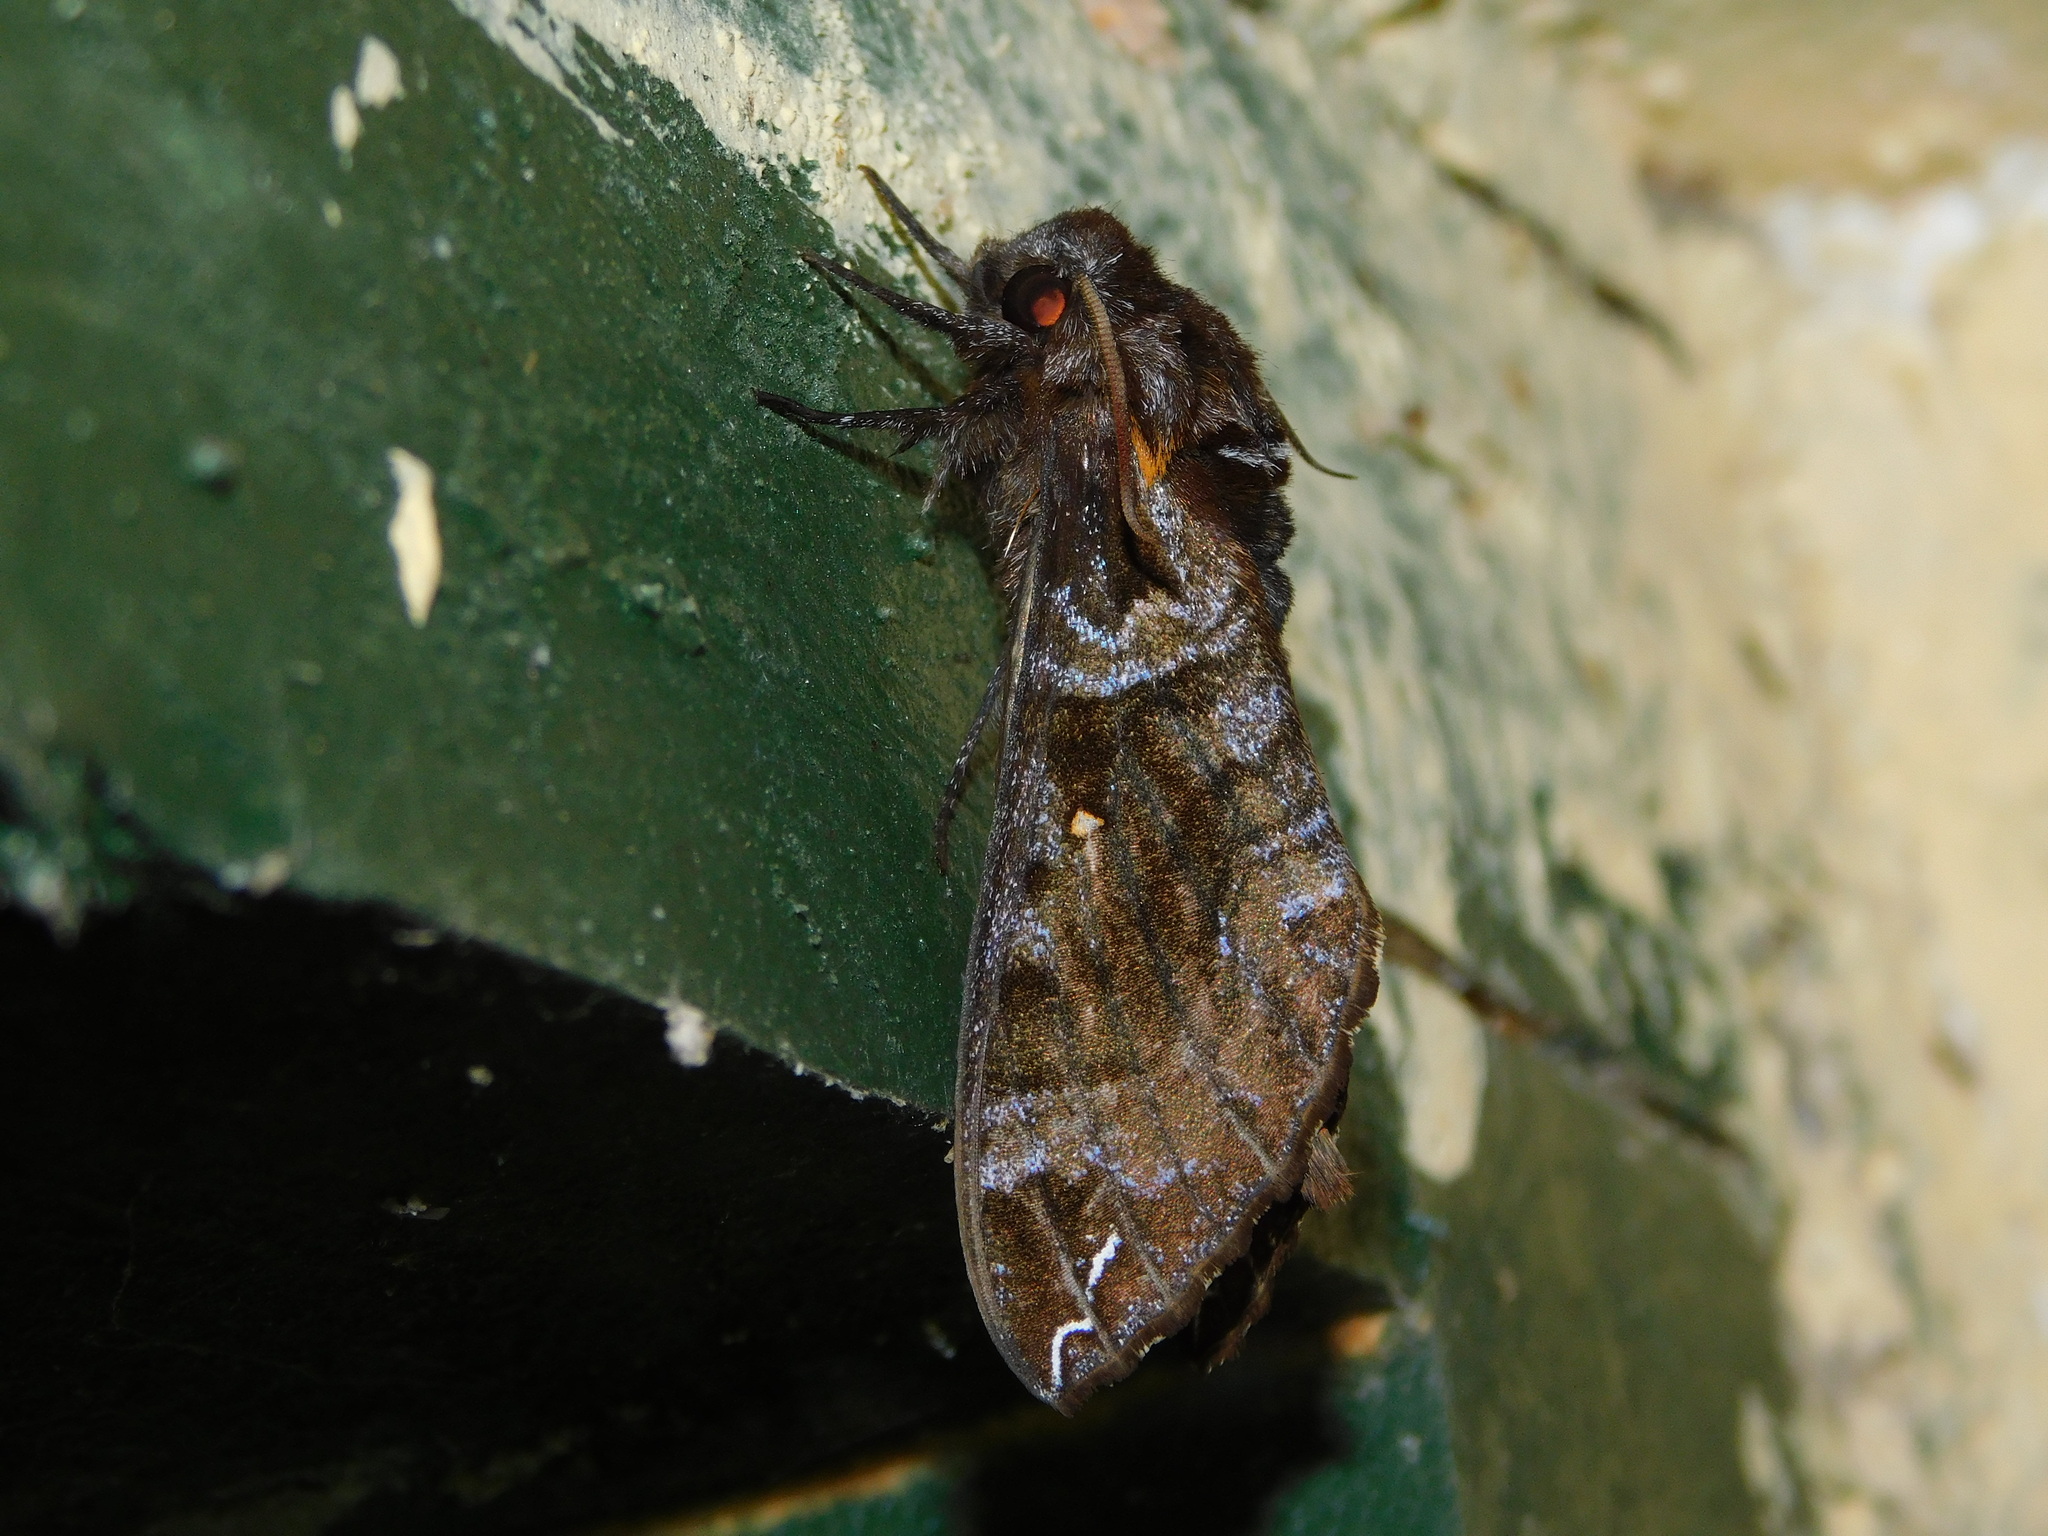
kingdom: Animalia
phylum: Arthropoda
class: Insecta
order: Lepidoptera
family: Sphingidae
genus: Dovania
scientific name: Dovania poecila
